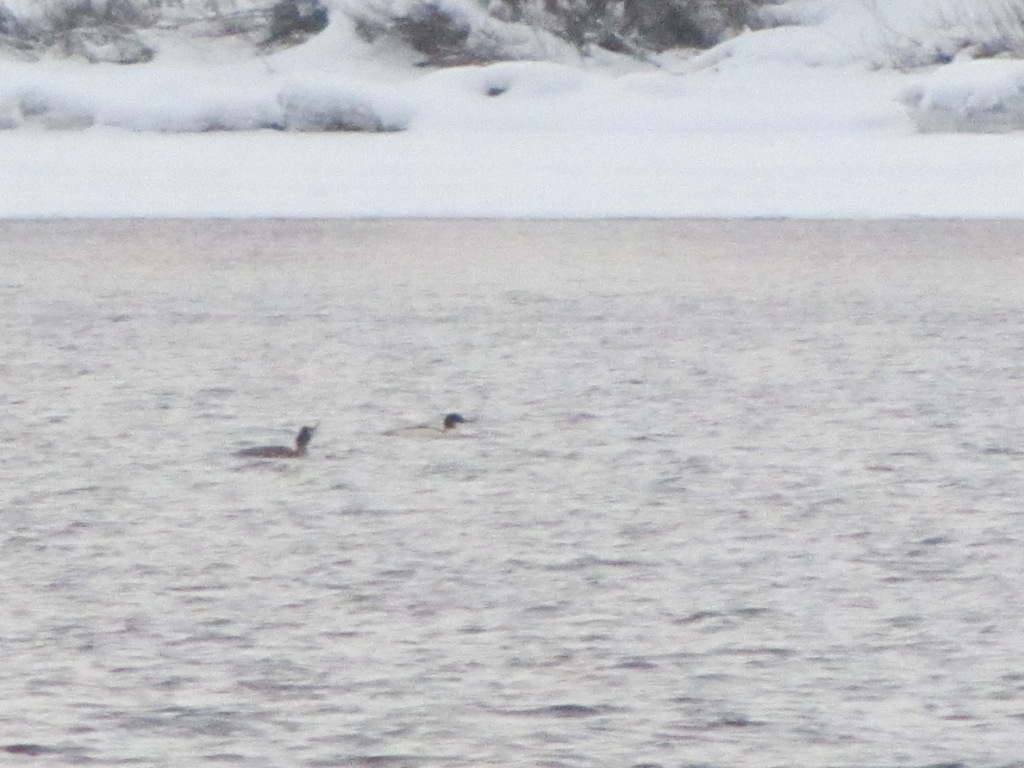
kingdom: Animalia
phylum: Chordata
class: Aves
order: Anseriformes
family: Anatidae
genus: Mergus
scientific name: Mergus merganser
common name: Common merganser
